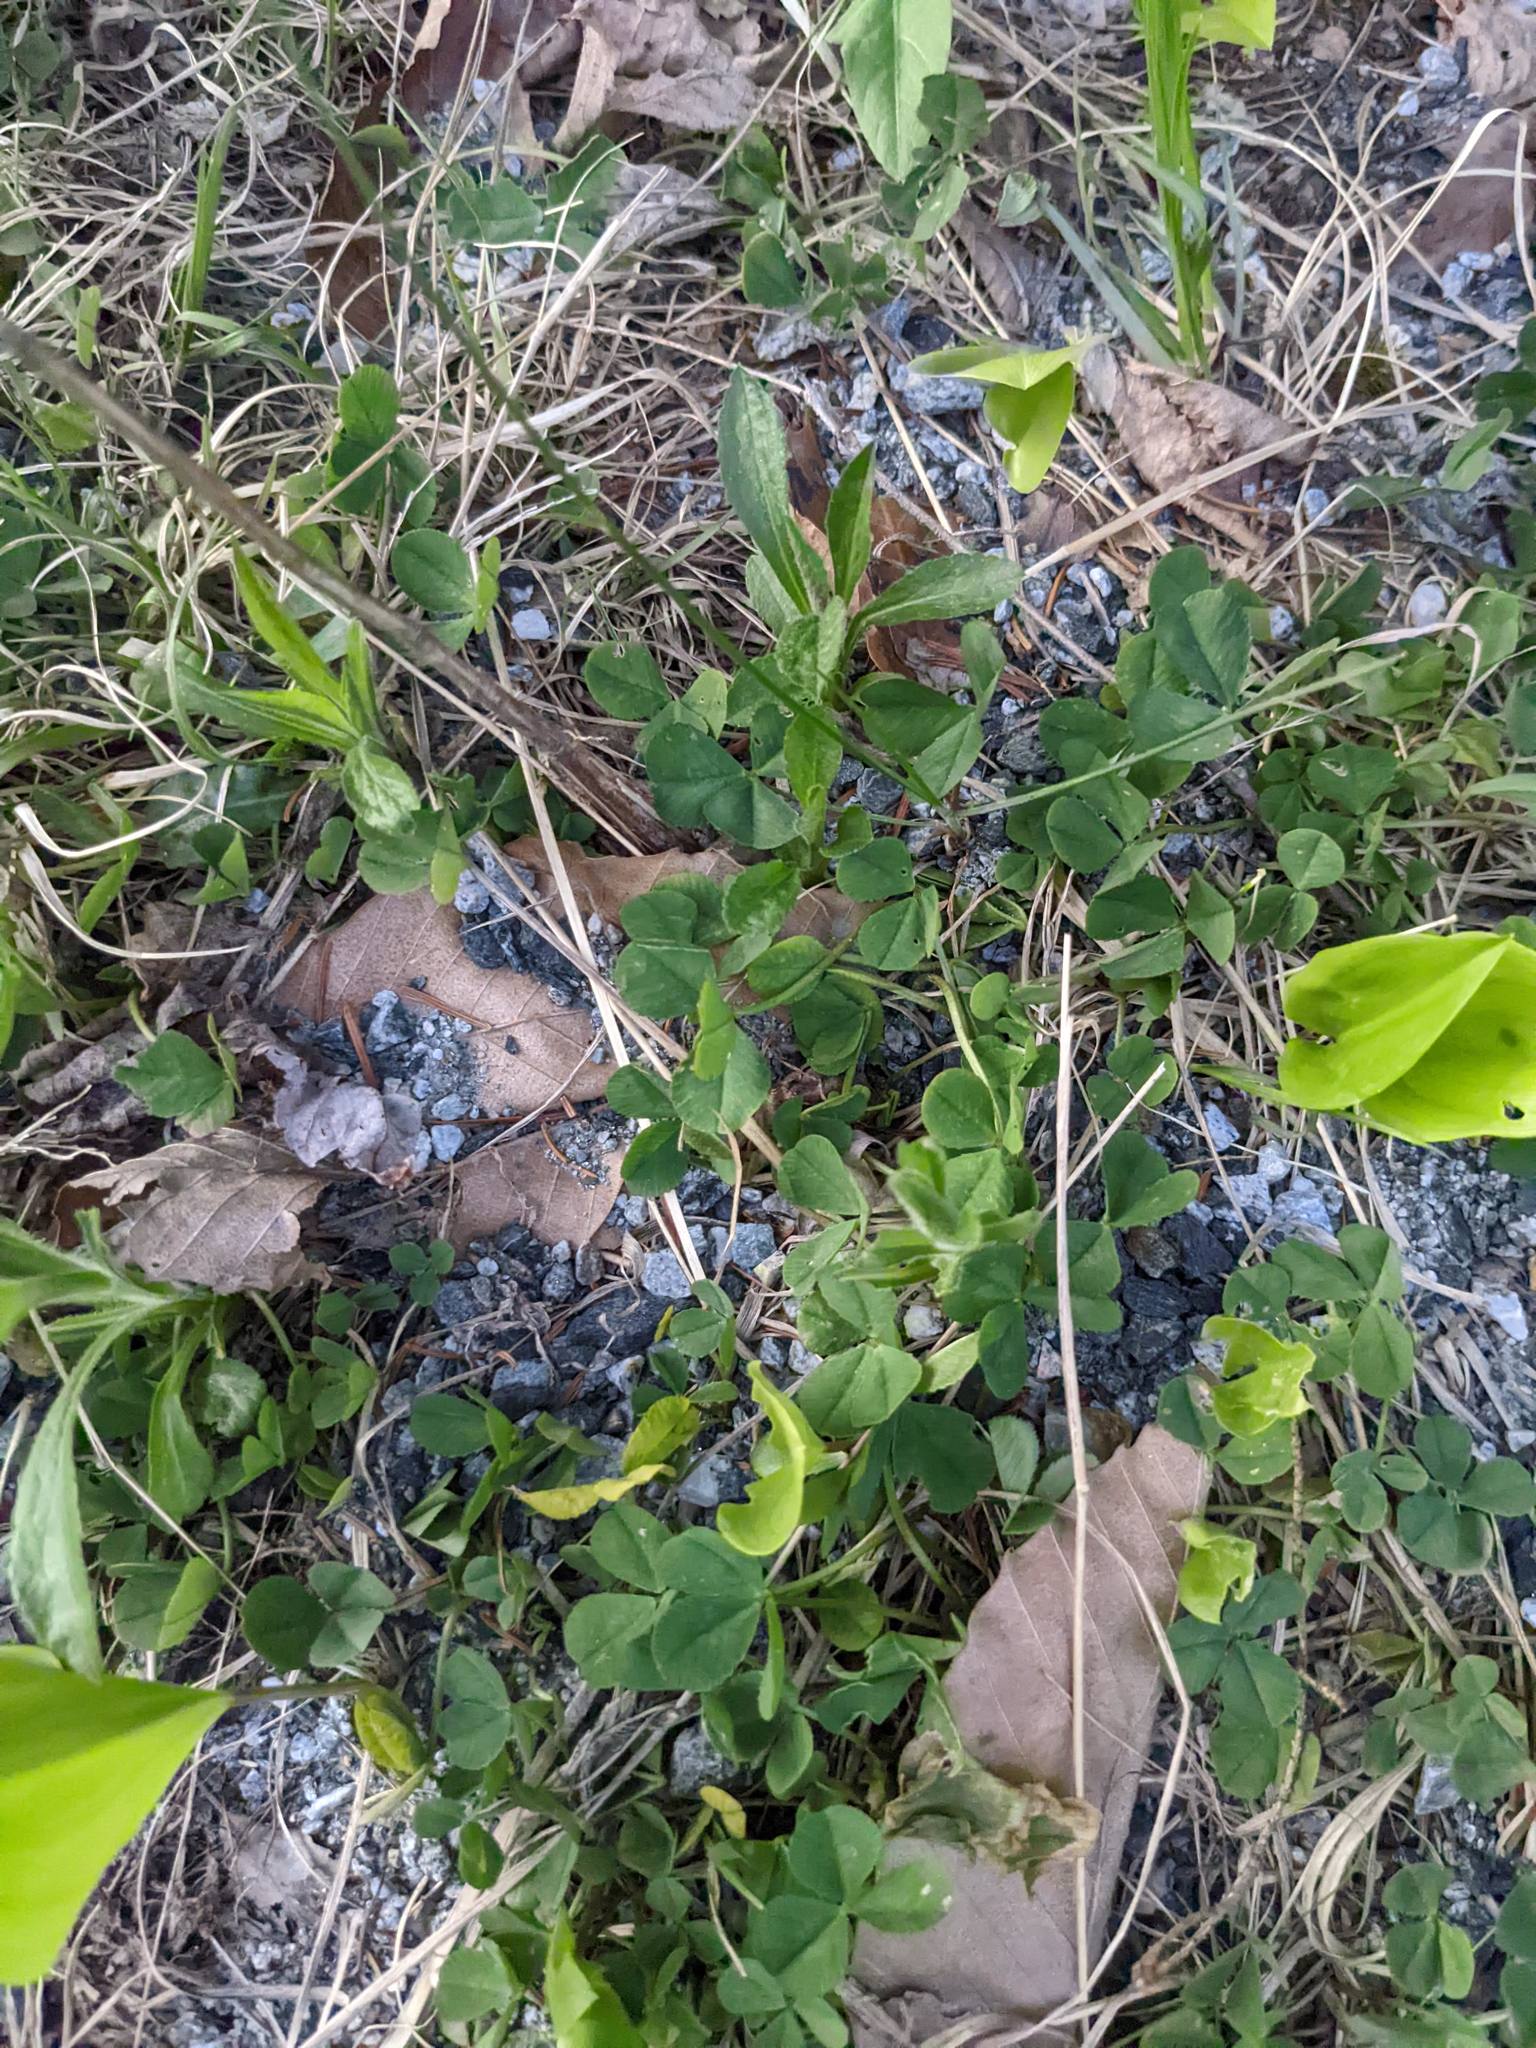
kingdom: Plantae
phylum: Tracheophyta
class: Magnoliopsida
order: Fabales
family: Fabaceae
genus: Trifolium
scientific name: Trifolium repens
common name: White clover
